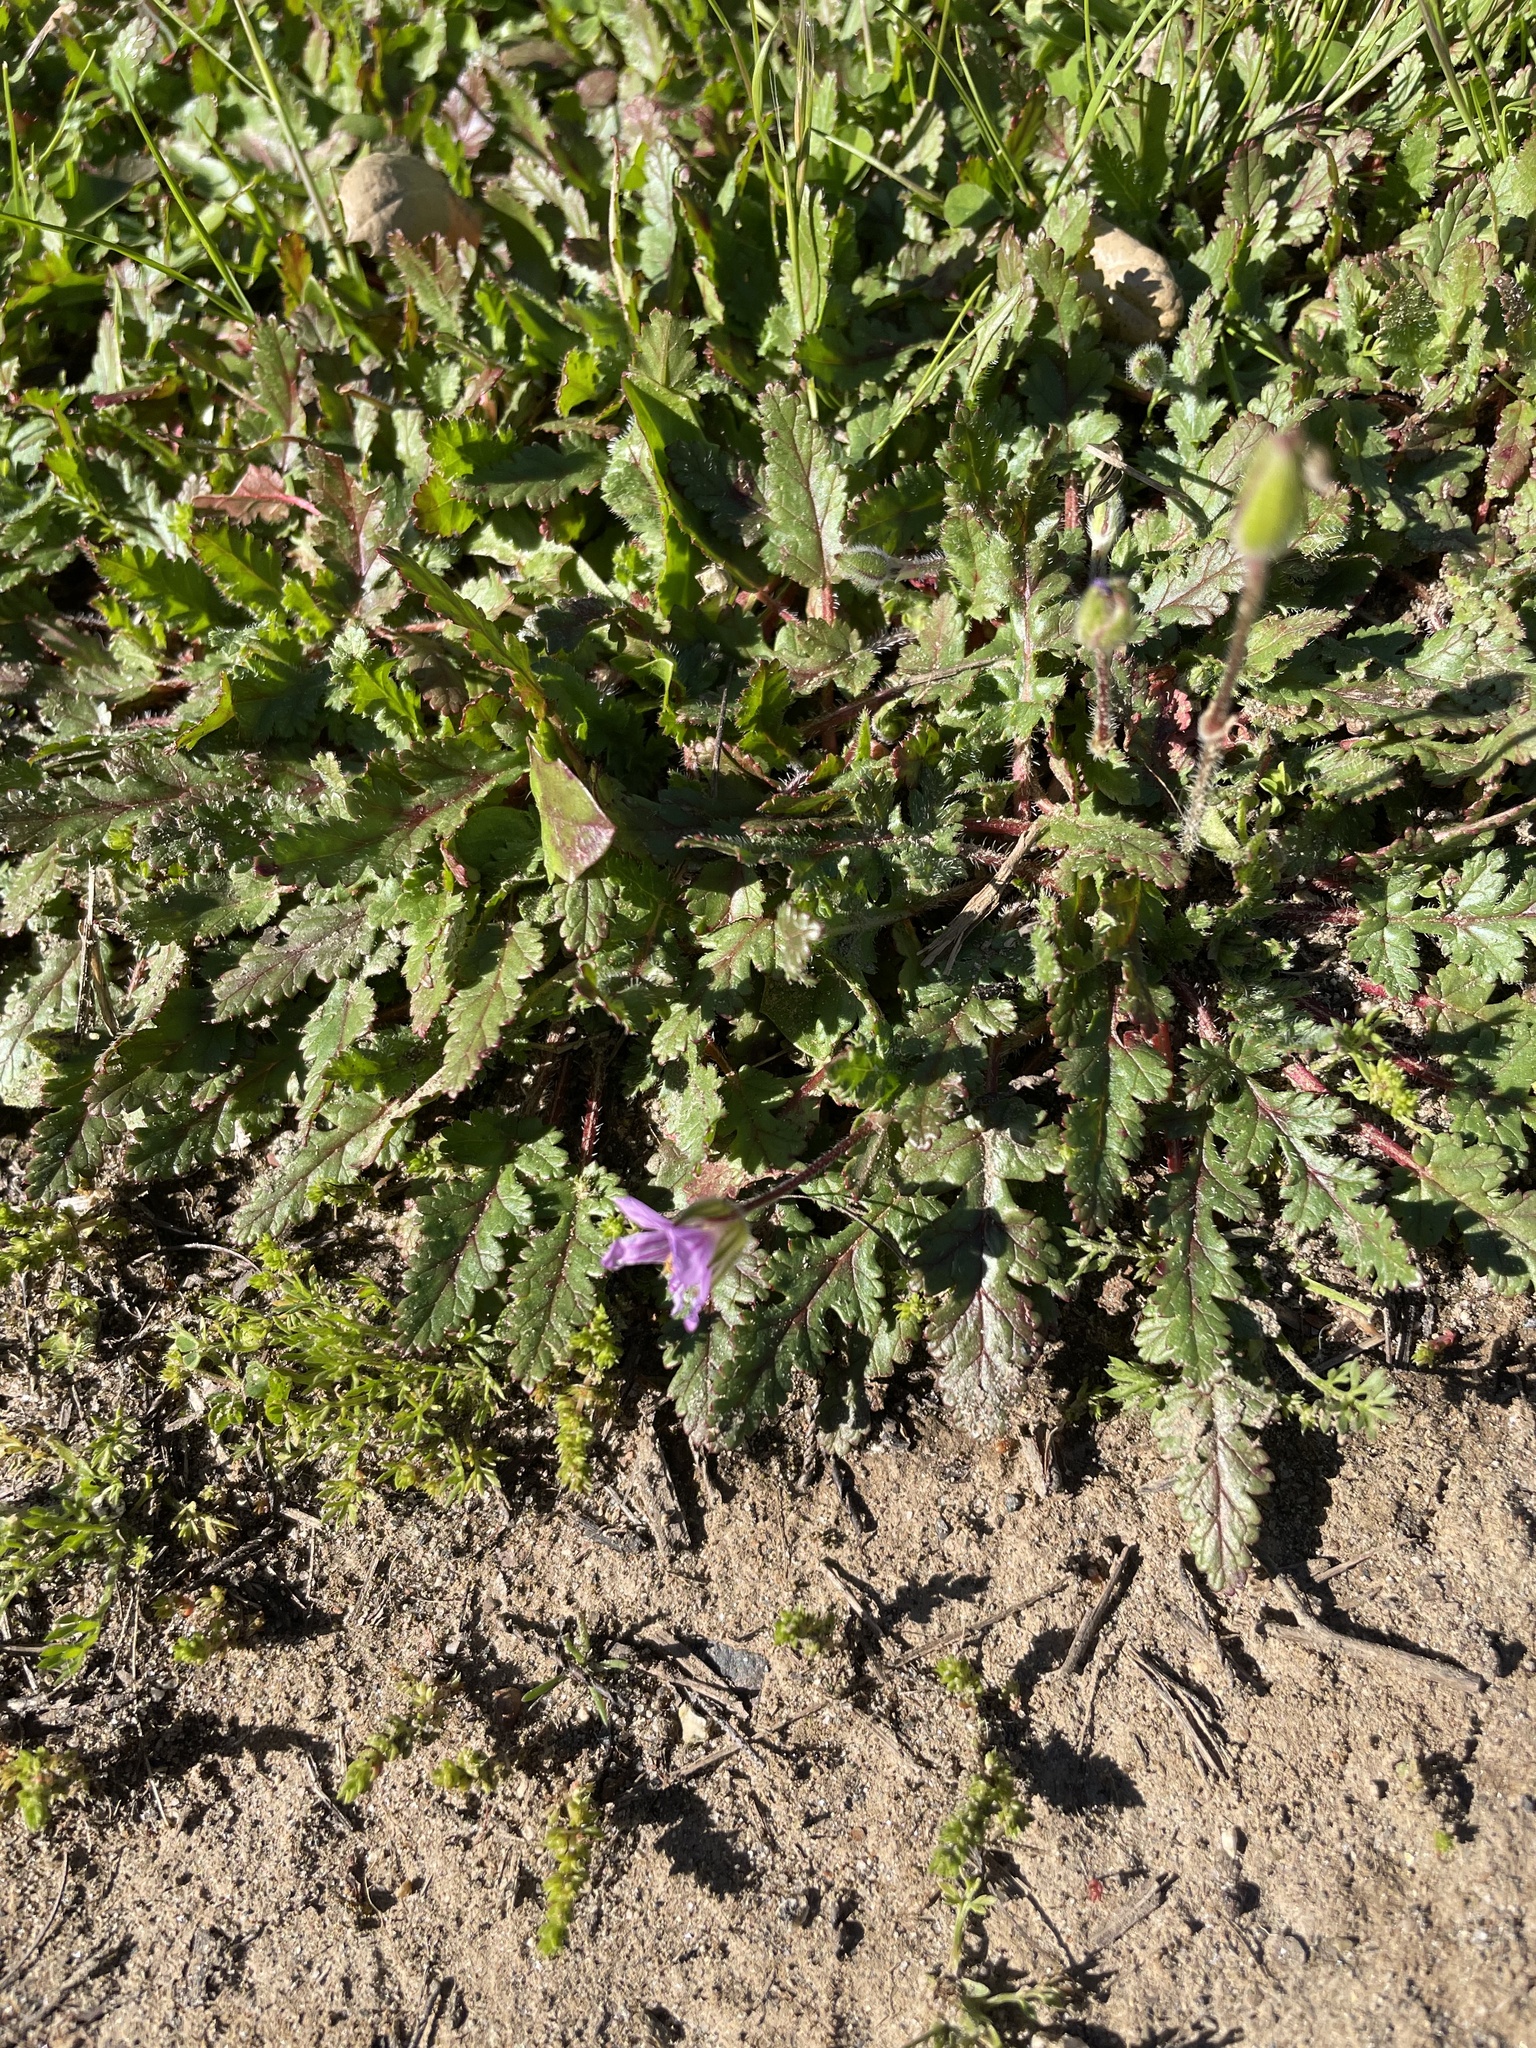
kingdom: Plantae
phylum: Tracheophyta
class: Magnoliopsida
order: Geraniales
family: Geraniaceae
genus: Erodium
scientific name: Erodium botrys
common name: Mediterranean stork's-bill
